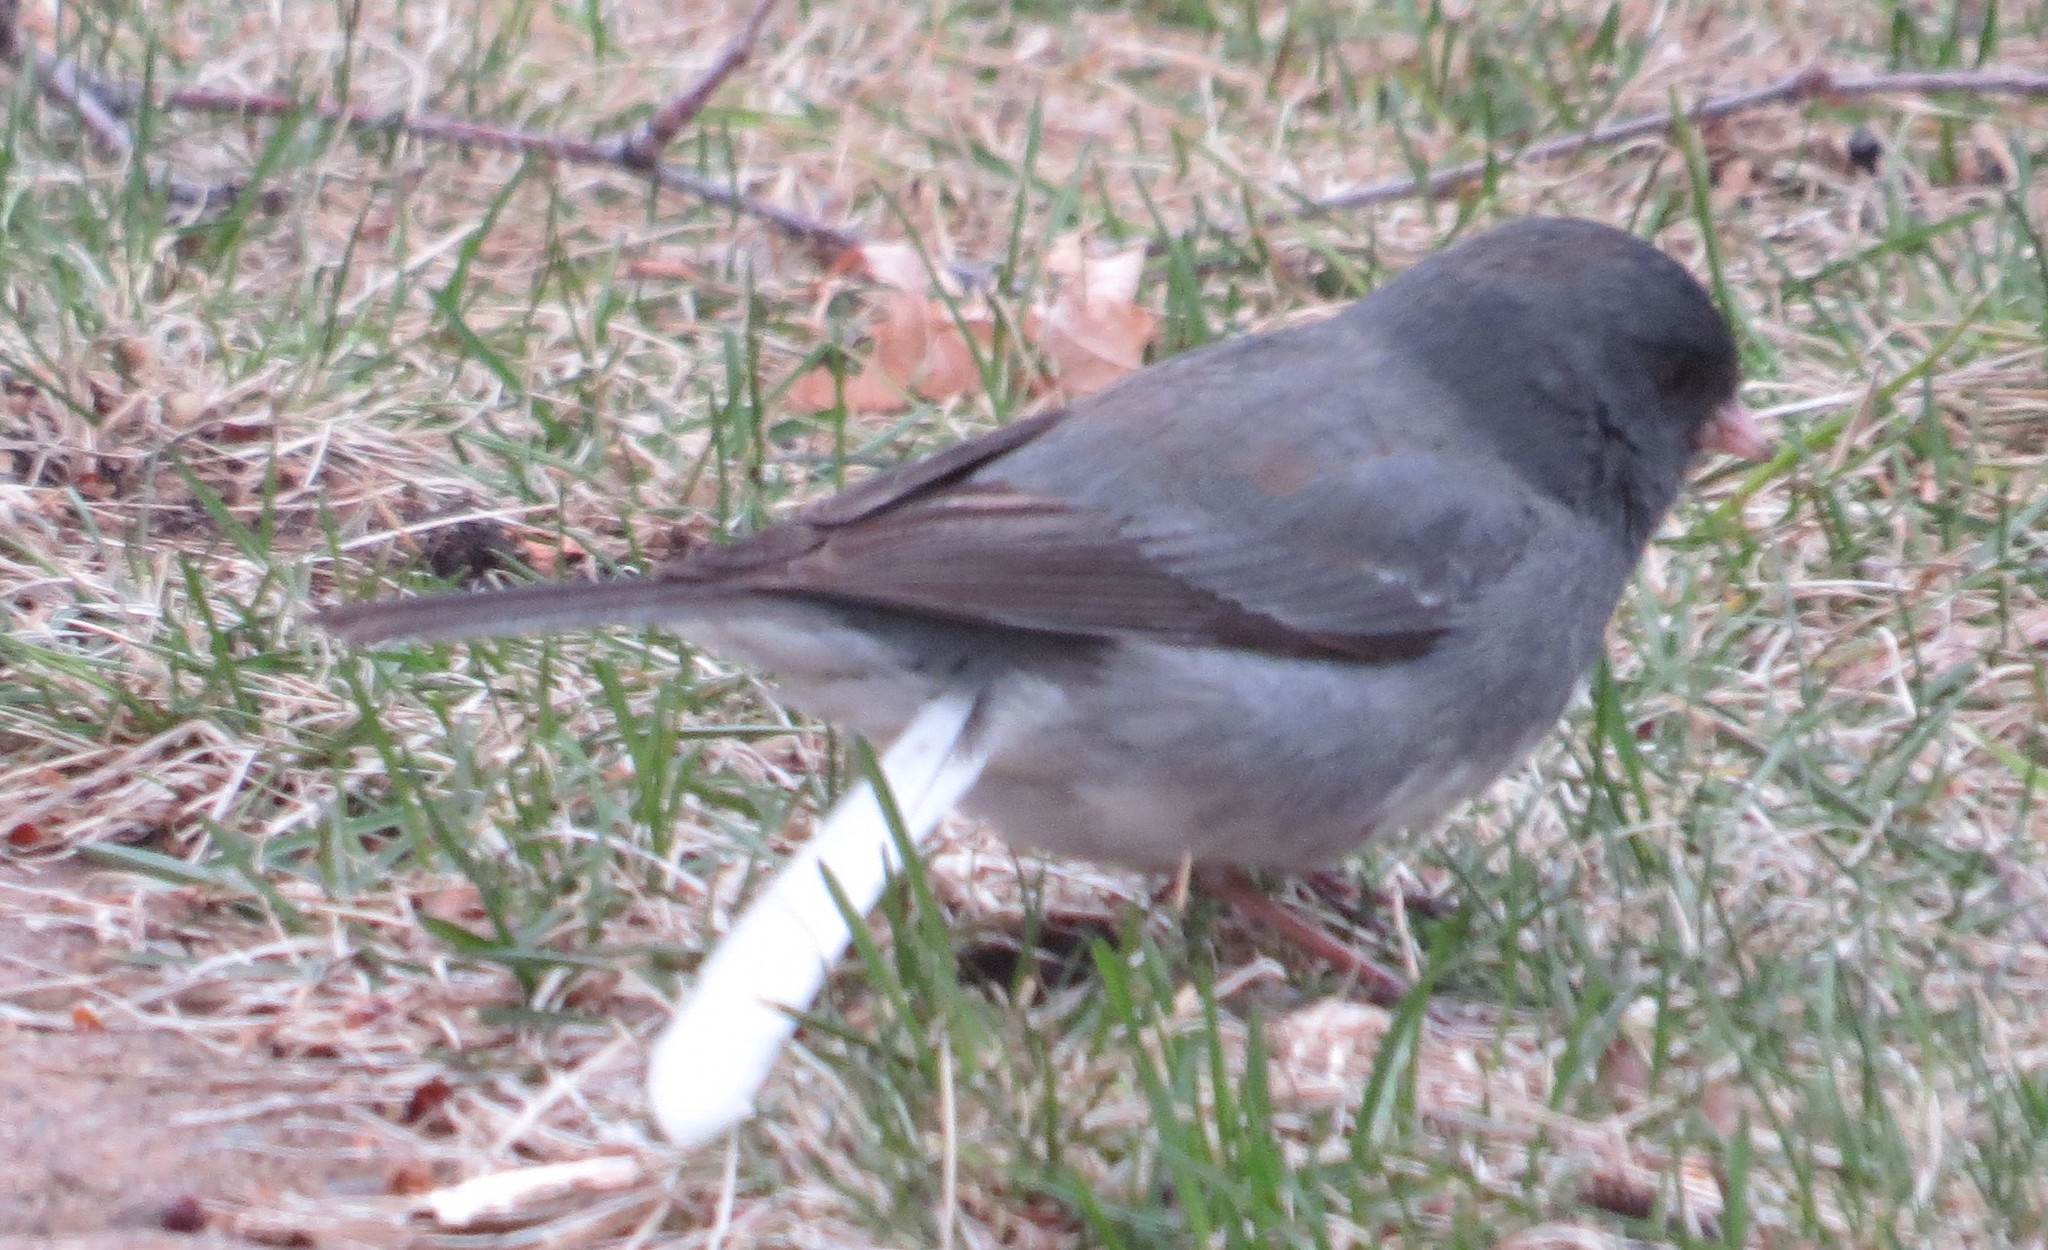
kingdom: Animalia
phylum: Chordata
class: Aves
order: Passeriformes
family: Passerellidae
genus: Junco
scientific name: Junco hyemalis
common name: Dark-eyed junco
